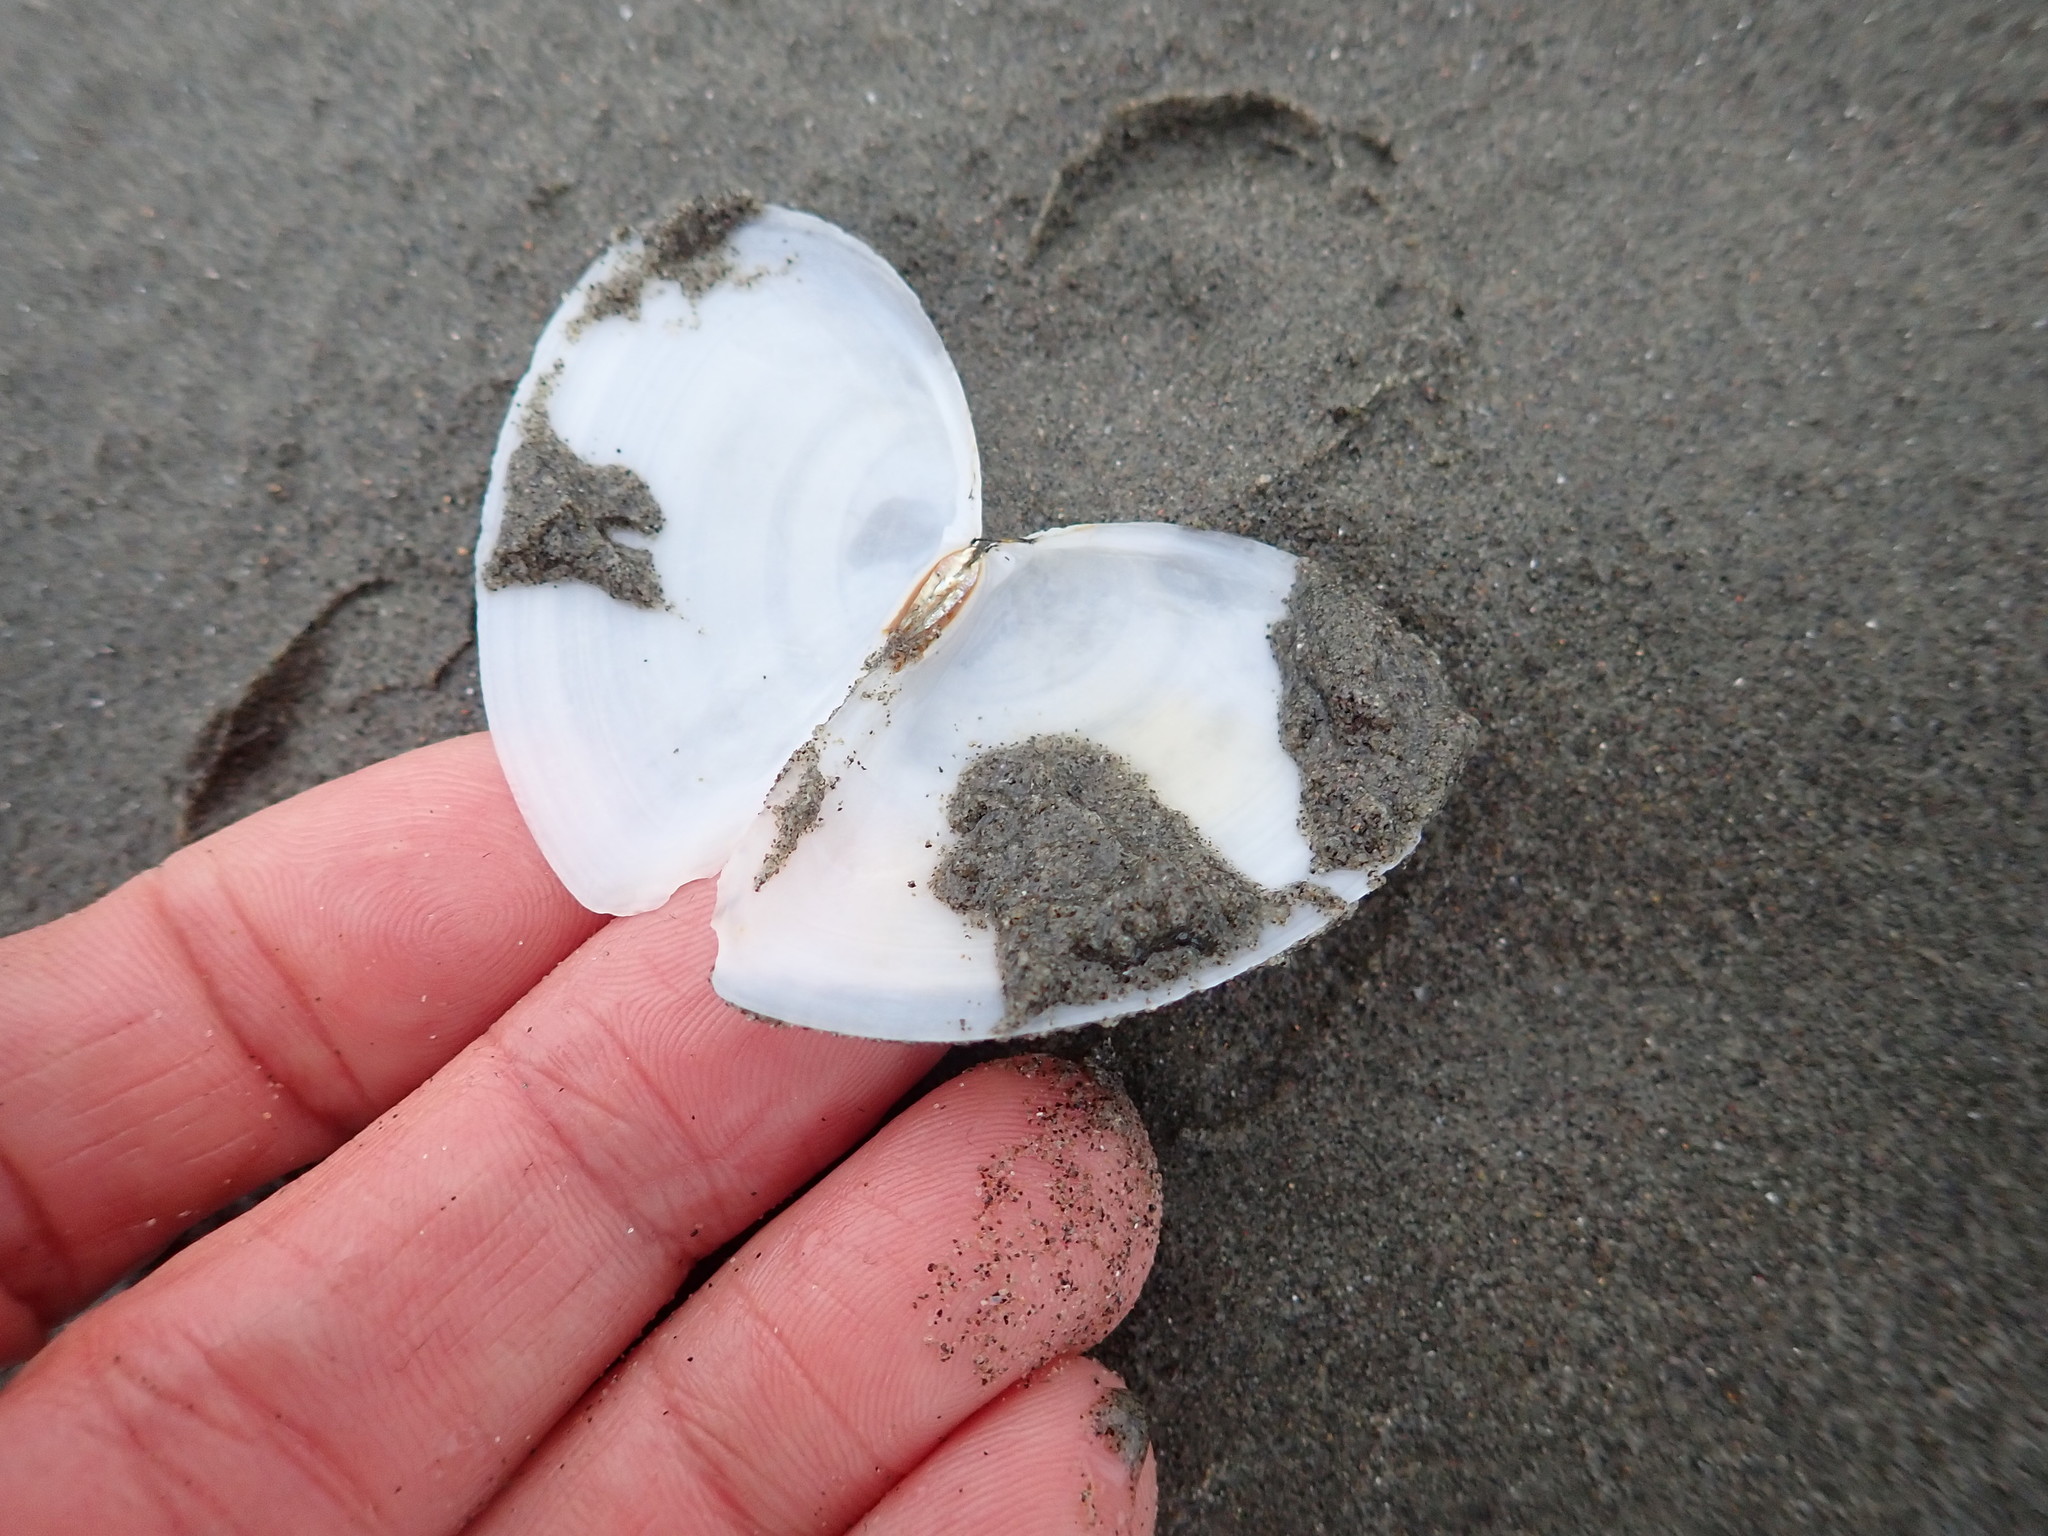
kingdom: Animalia
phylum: Mollusca
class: Bivalvia
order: Cardiida
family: Tellinidae
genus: Bartschicoma
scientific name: Bartschicoma gaimardi
